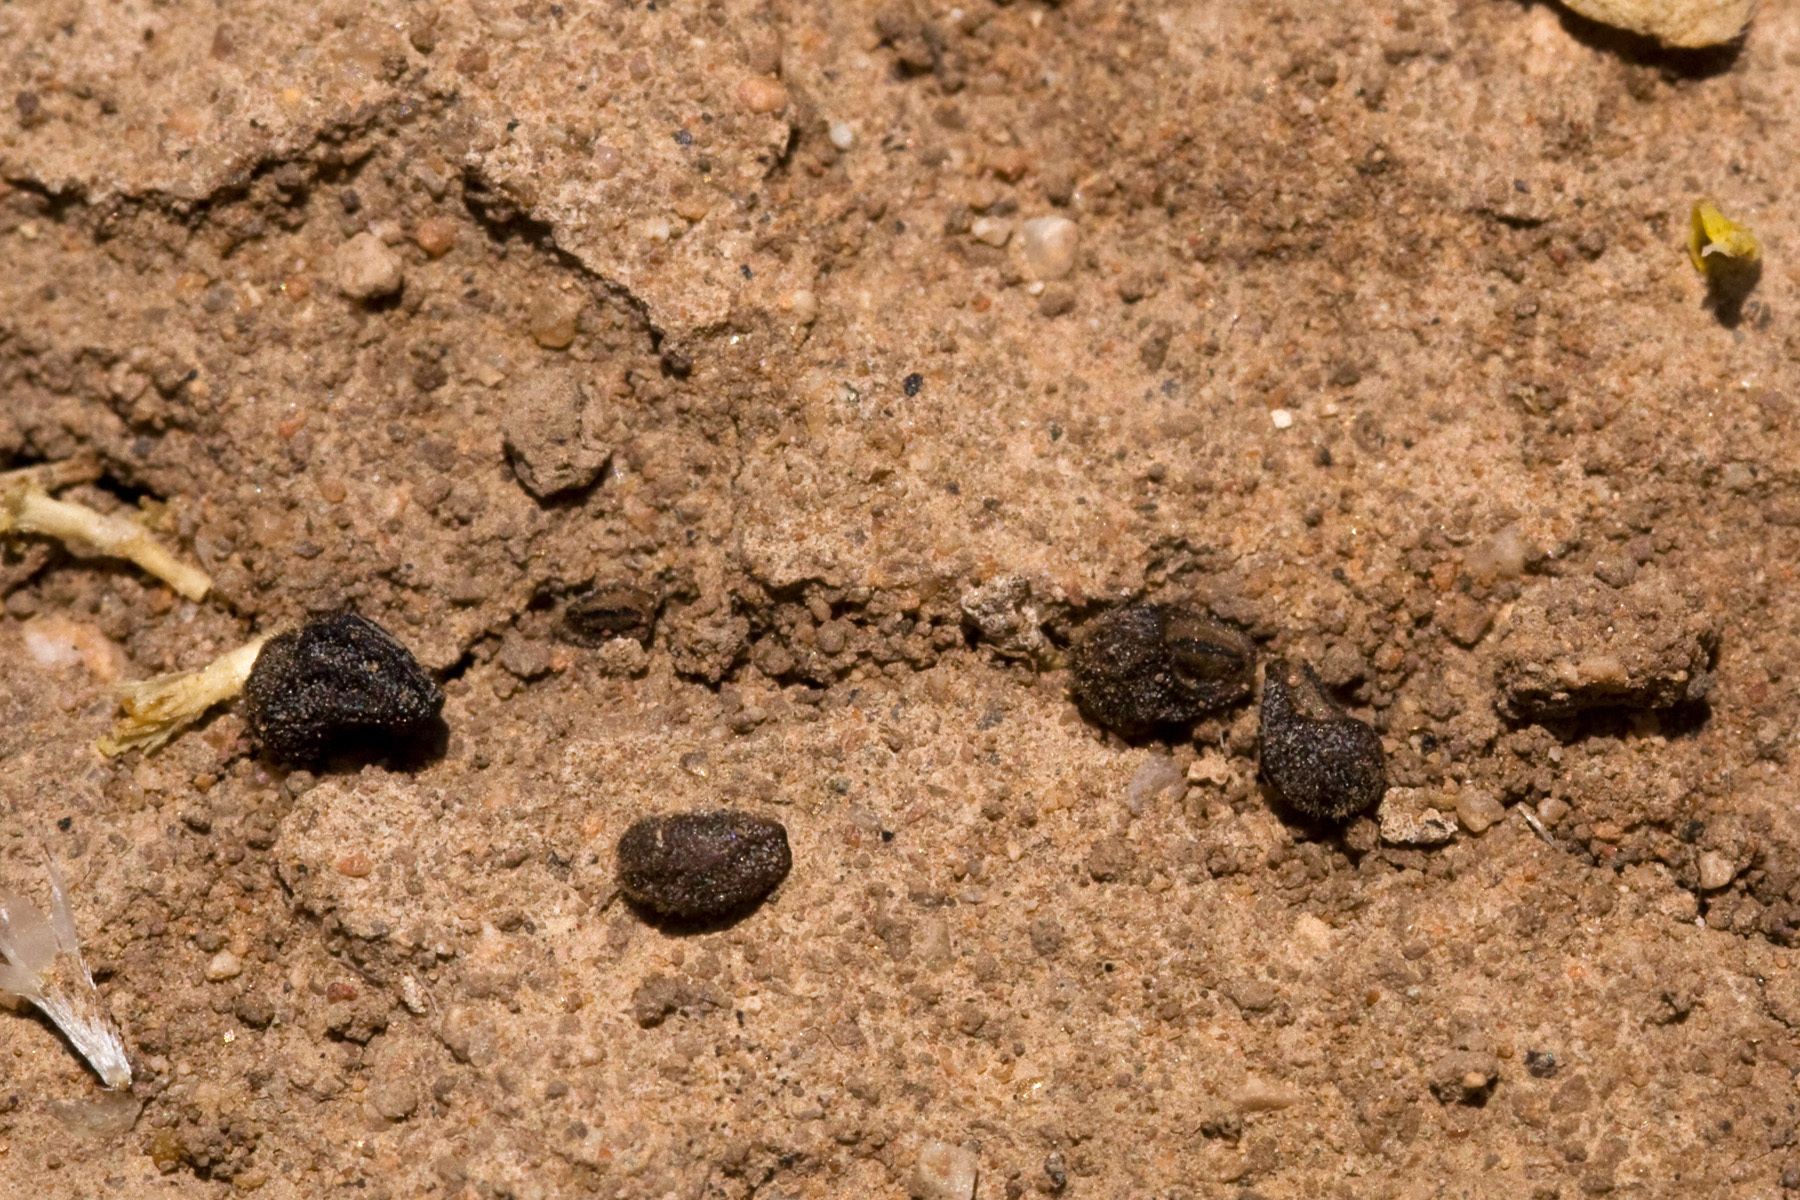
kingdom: Plantae
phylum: Tracheophyta
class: Magnoliopsida
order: Lamiales
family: Lamiaceae
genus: Teucrium
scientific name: Teucrium depressum
